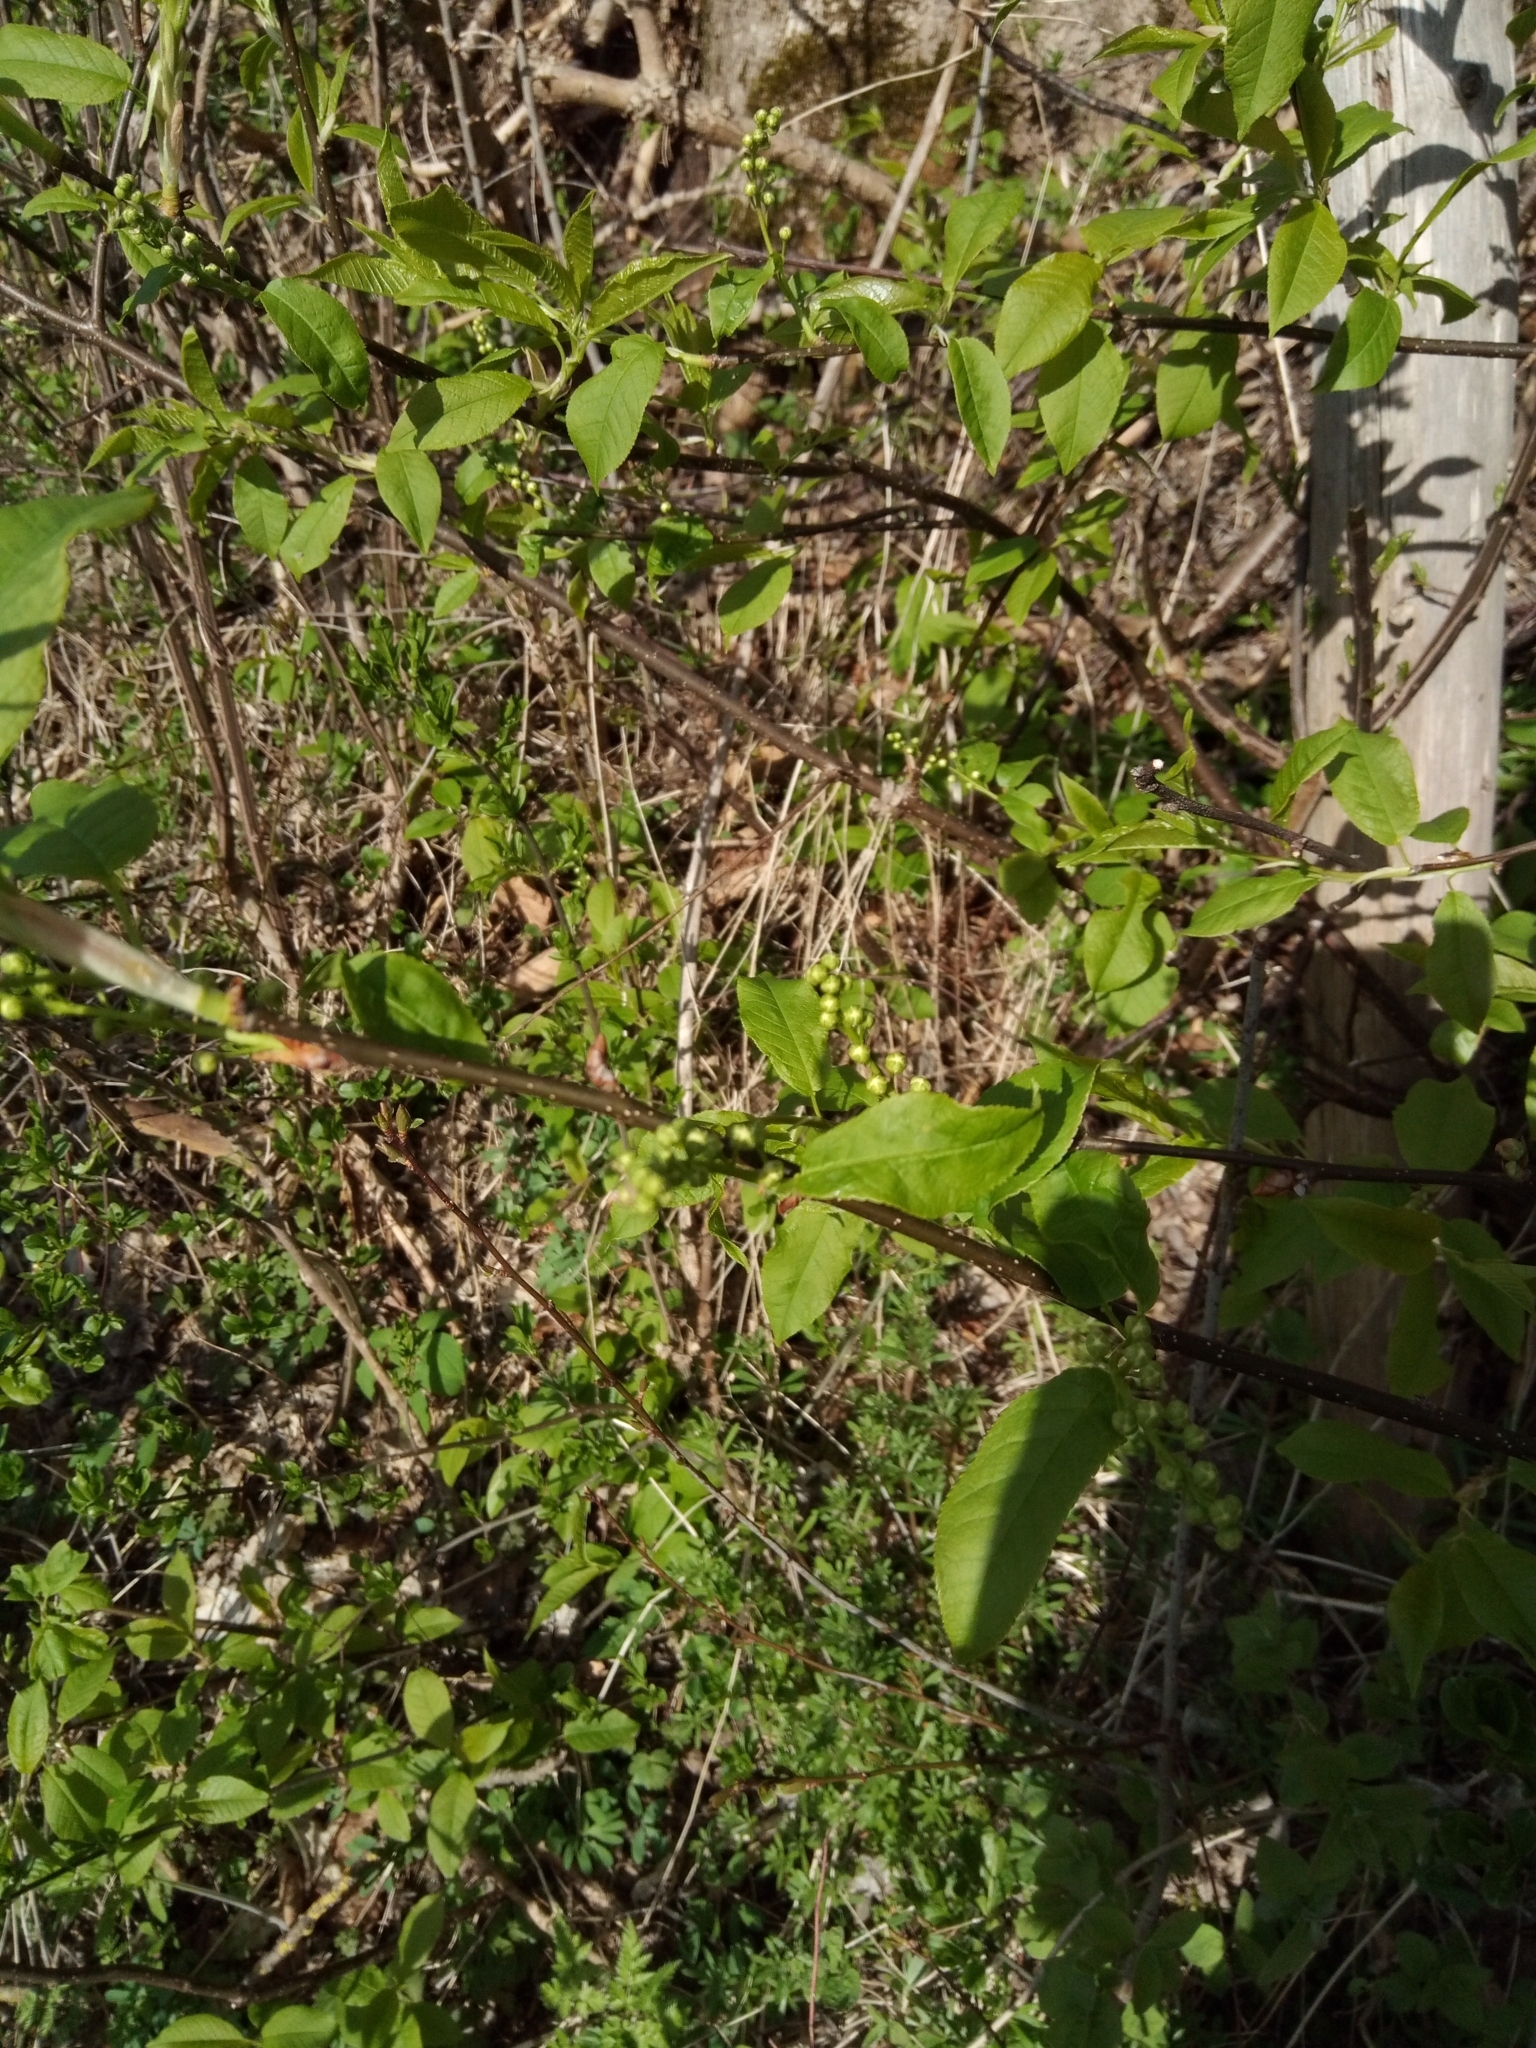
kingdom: Plantae
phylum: Tracheophyta
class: Magnoliopsida
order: Rosales
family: Rosaceae
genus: Prunus
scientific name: Prunus padus
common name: Bird cherry
